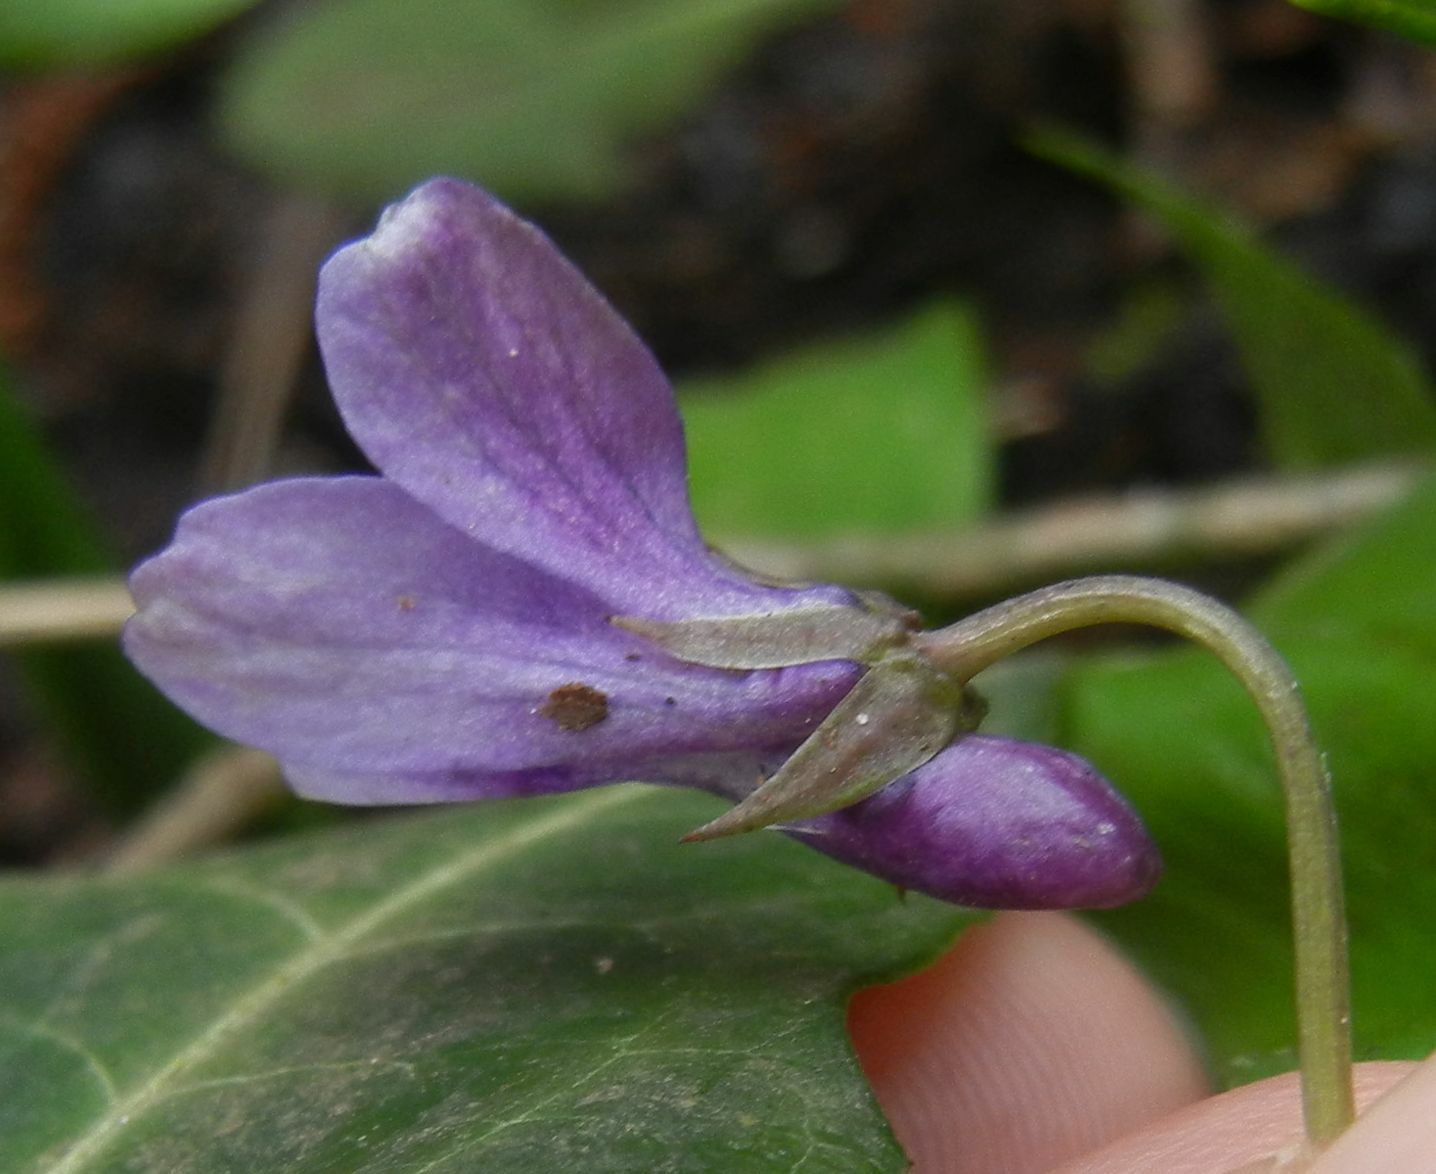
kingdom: Plantae
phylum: Tracheophyta
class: Magnoliopsida
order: Malpighiales
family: Violaceae
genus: Viola
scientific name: Viola reichenbachiana
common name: Early dog-violet
